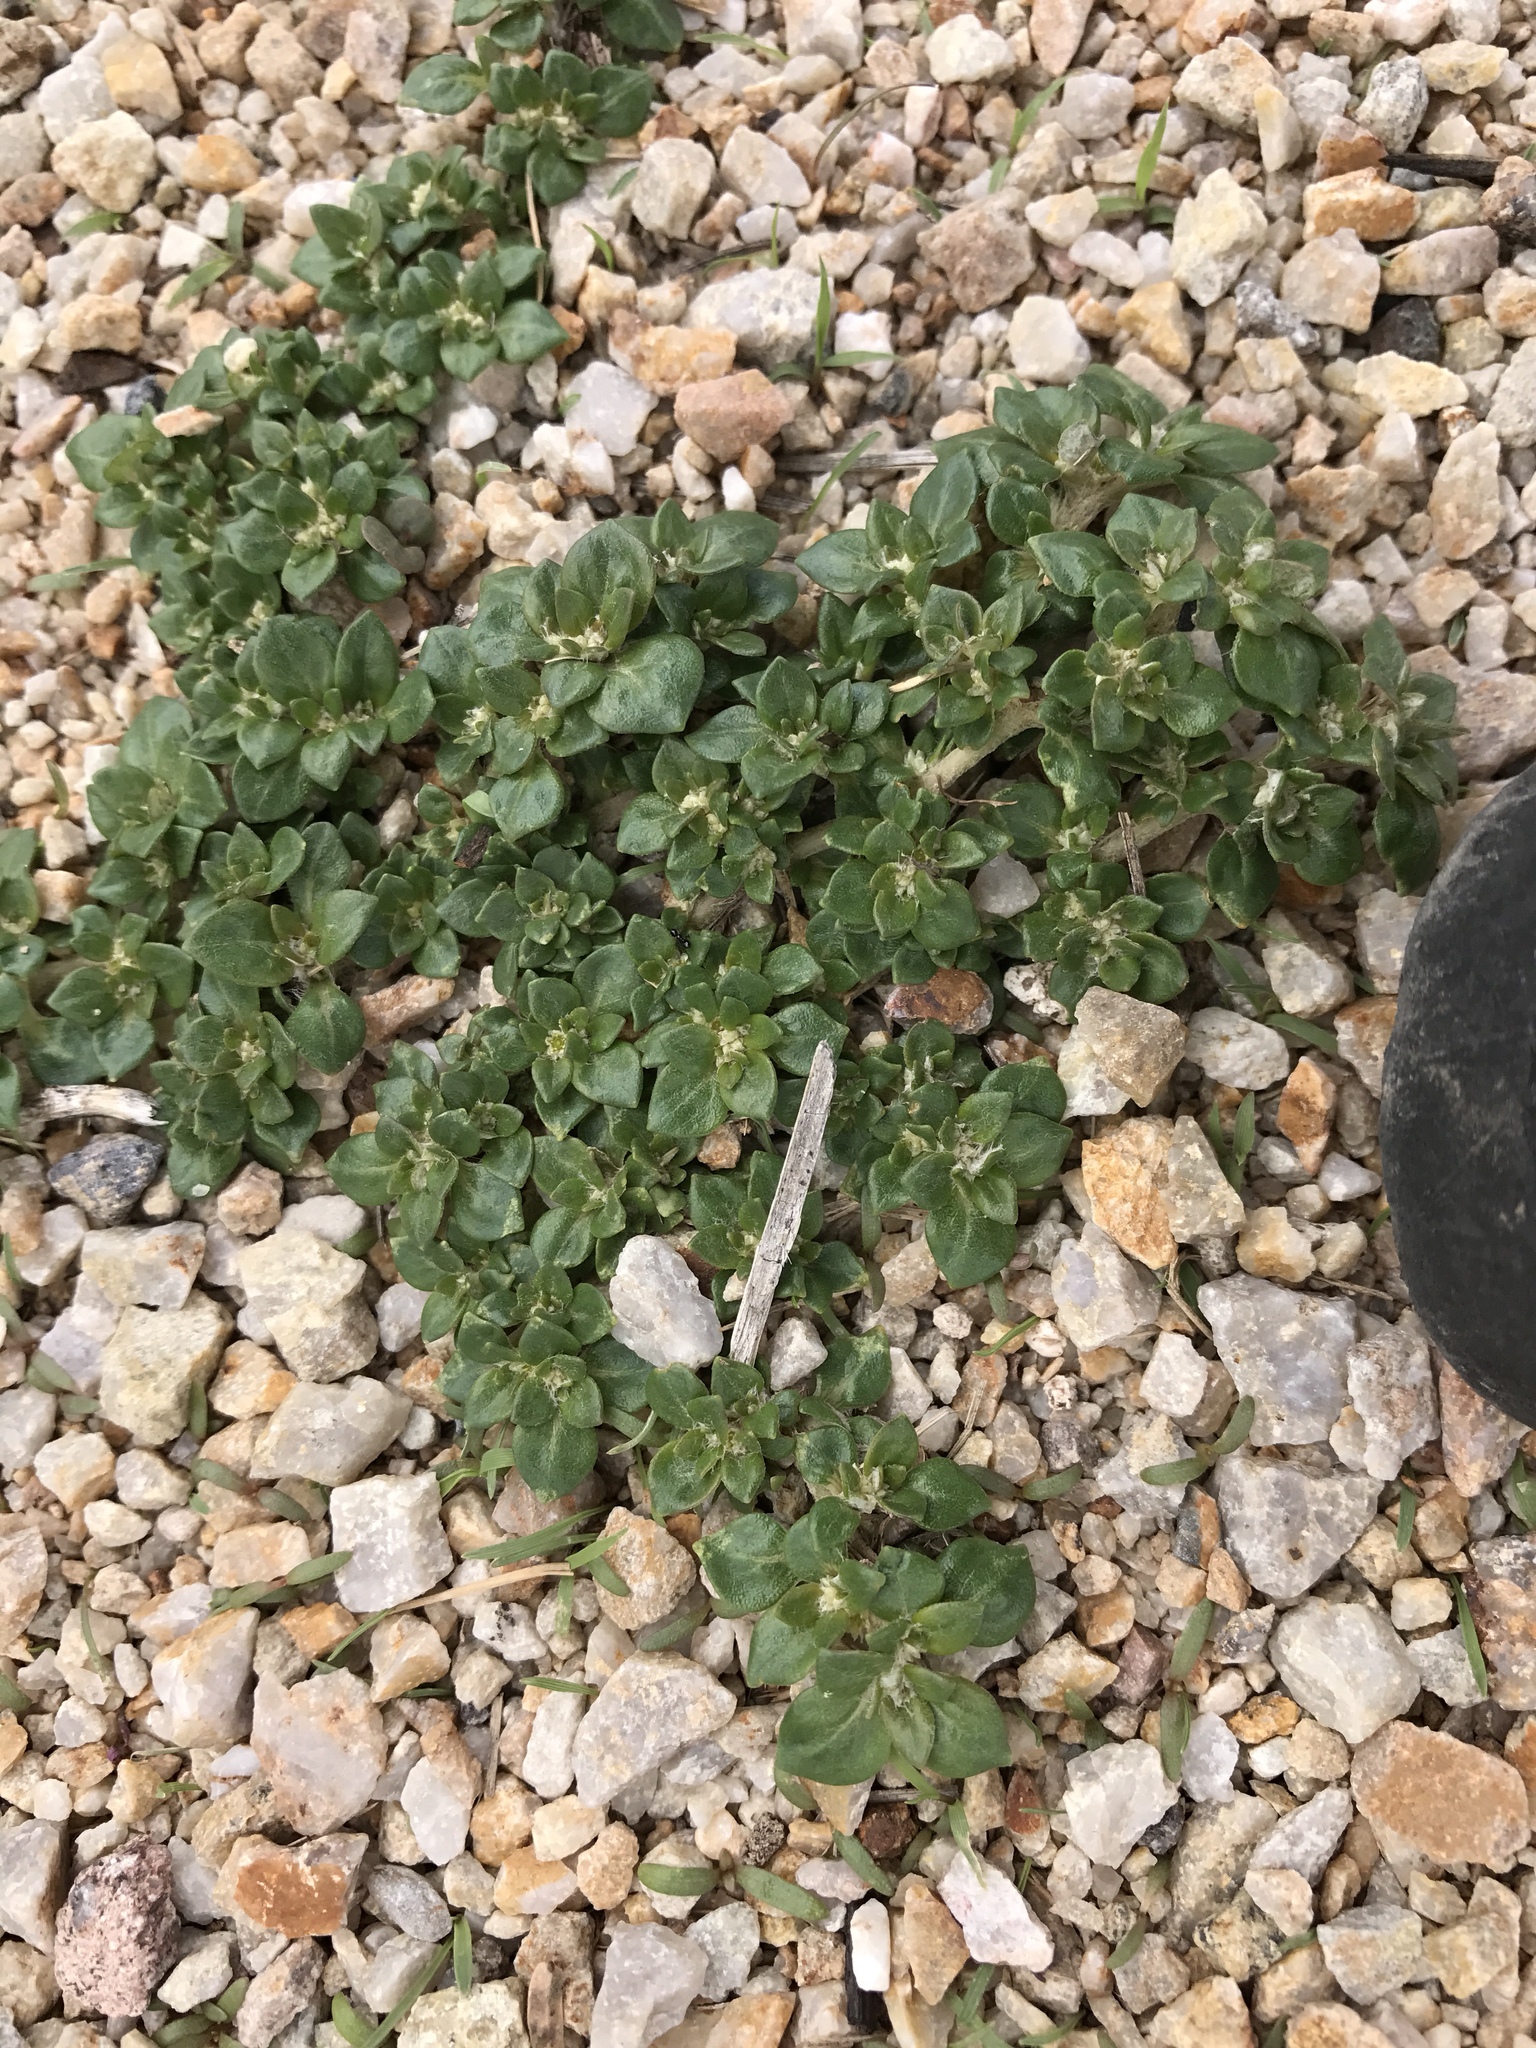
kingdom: Plantae
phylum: Tracheophyta
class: Magnoliopsida
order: Caryophyllales
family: Amaranthaceae
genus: Guilleminea
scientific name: Guilleminea densa
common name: Small matweed
